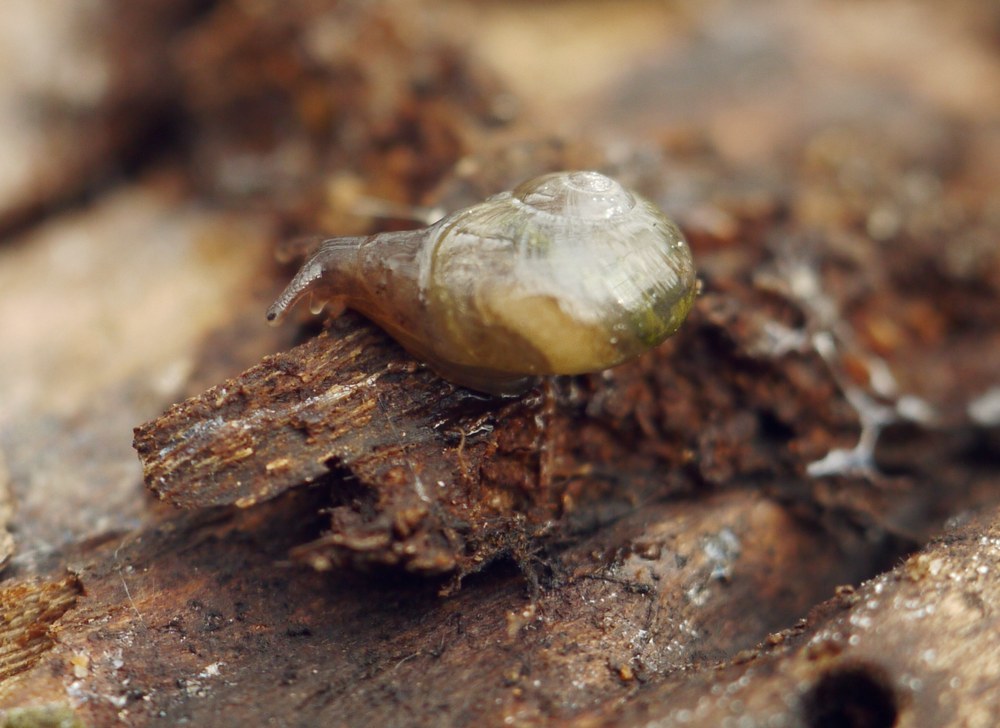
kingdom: Animalia
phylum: Mollusca
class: Gastropoda
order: Stylommatophora
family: Vitrinidae
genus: Vitrina
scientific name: Vitrina pellucida
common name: Pellucid glass snail
